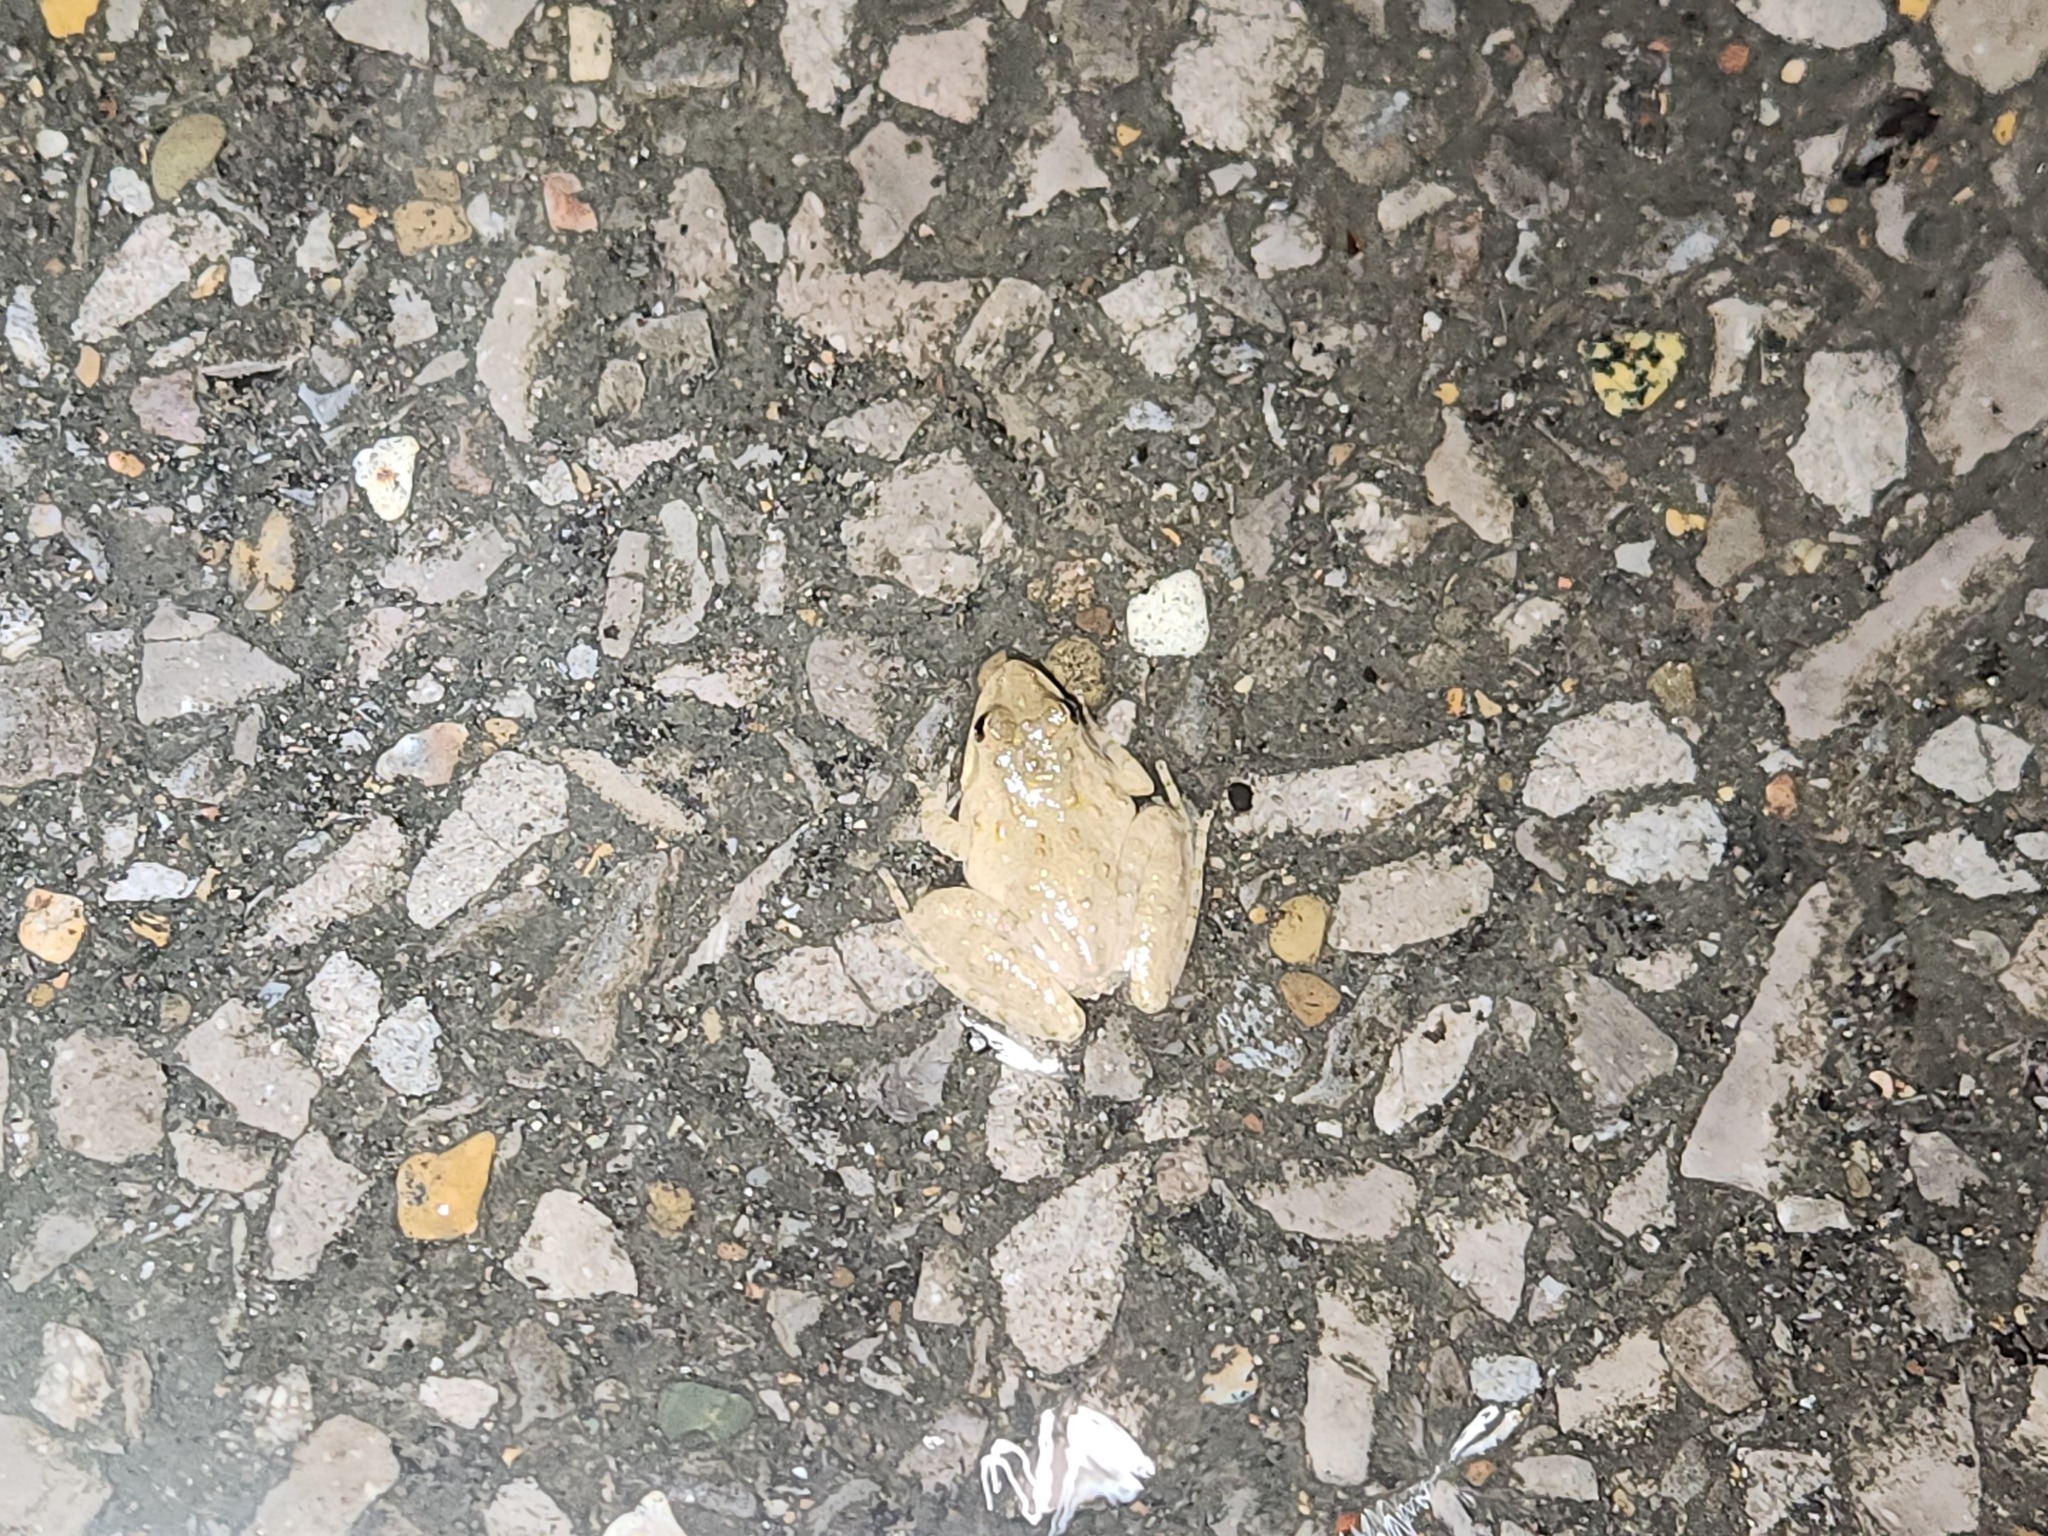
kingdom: Animalia
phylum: Chordata
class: Amphibia
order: Anura
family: Hylidae
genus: Acris
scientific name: Acris crepitans
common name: Northern cricket frog
